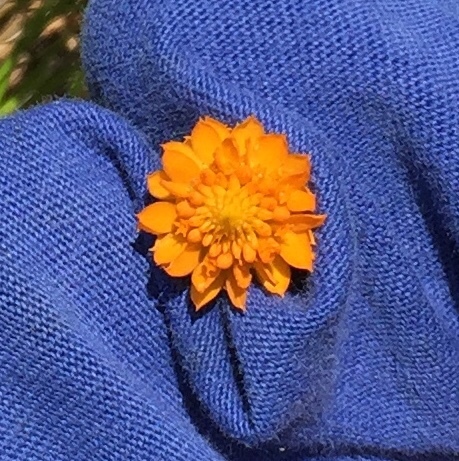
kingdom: Plantae
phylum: Tracheophyta
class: Magnoliopsida
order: Fabales
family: Polygalaceae
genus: Polygala
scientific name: Polygala lutea
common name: Orange milkwort
